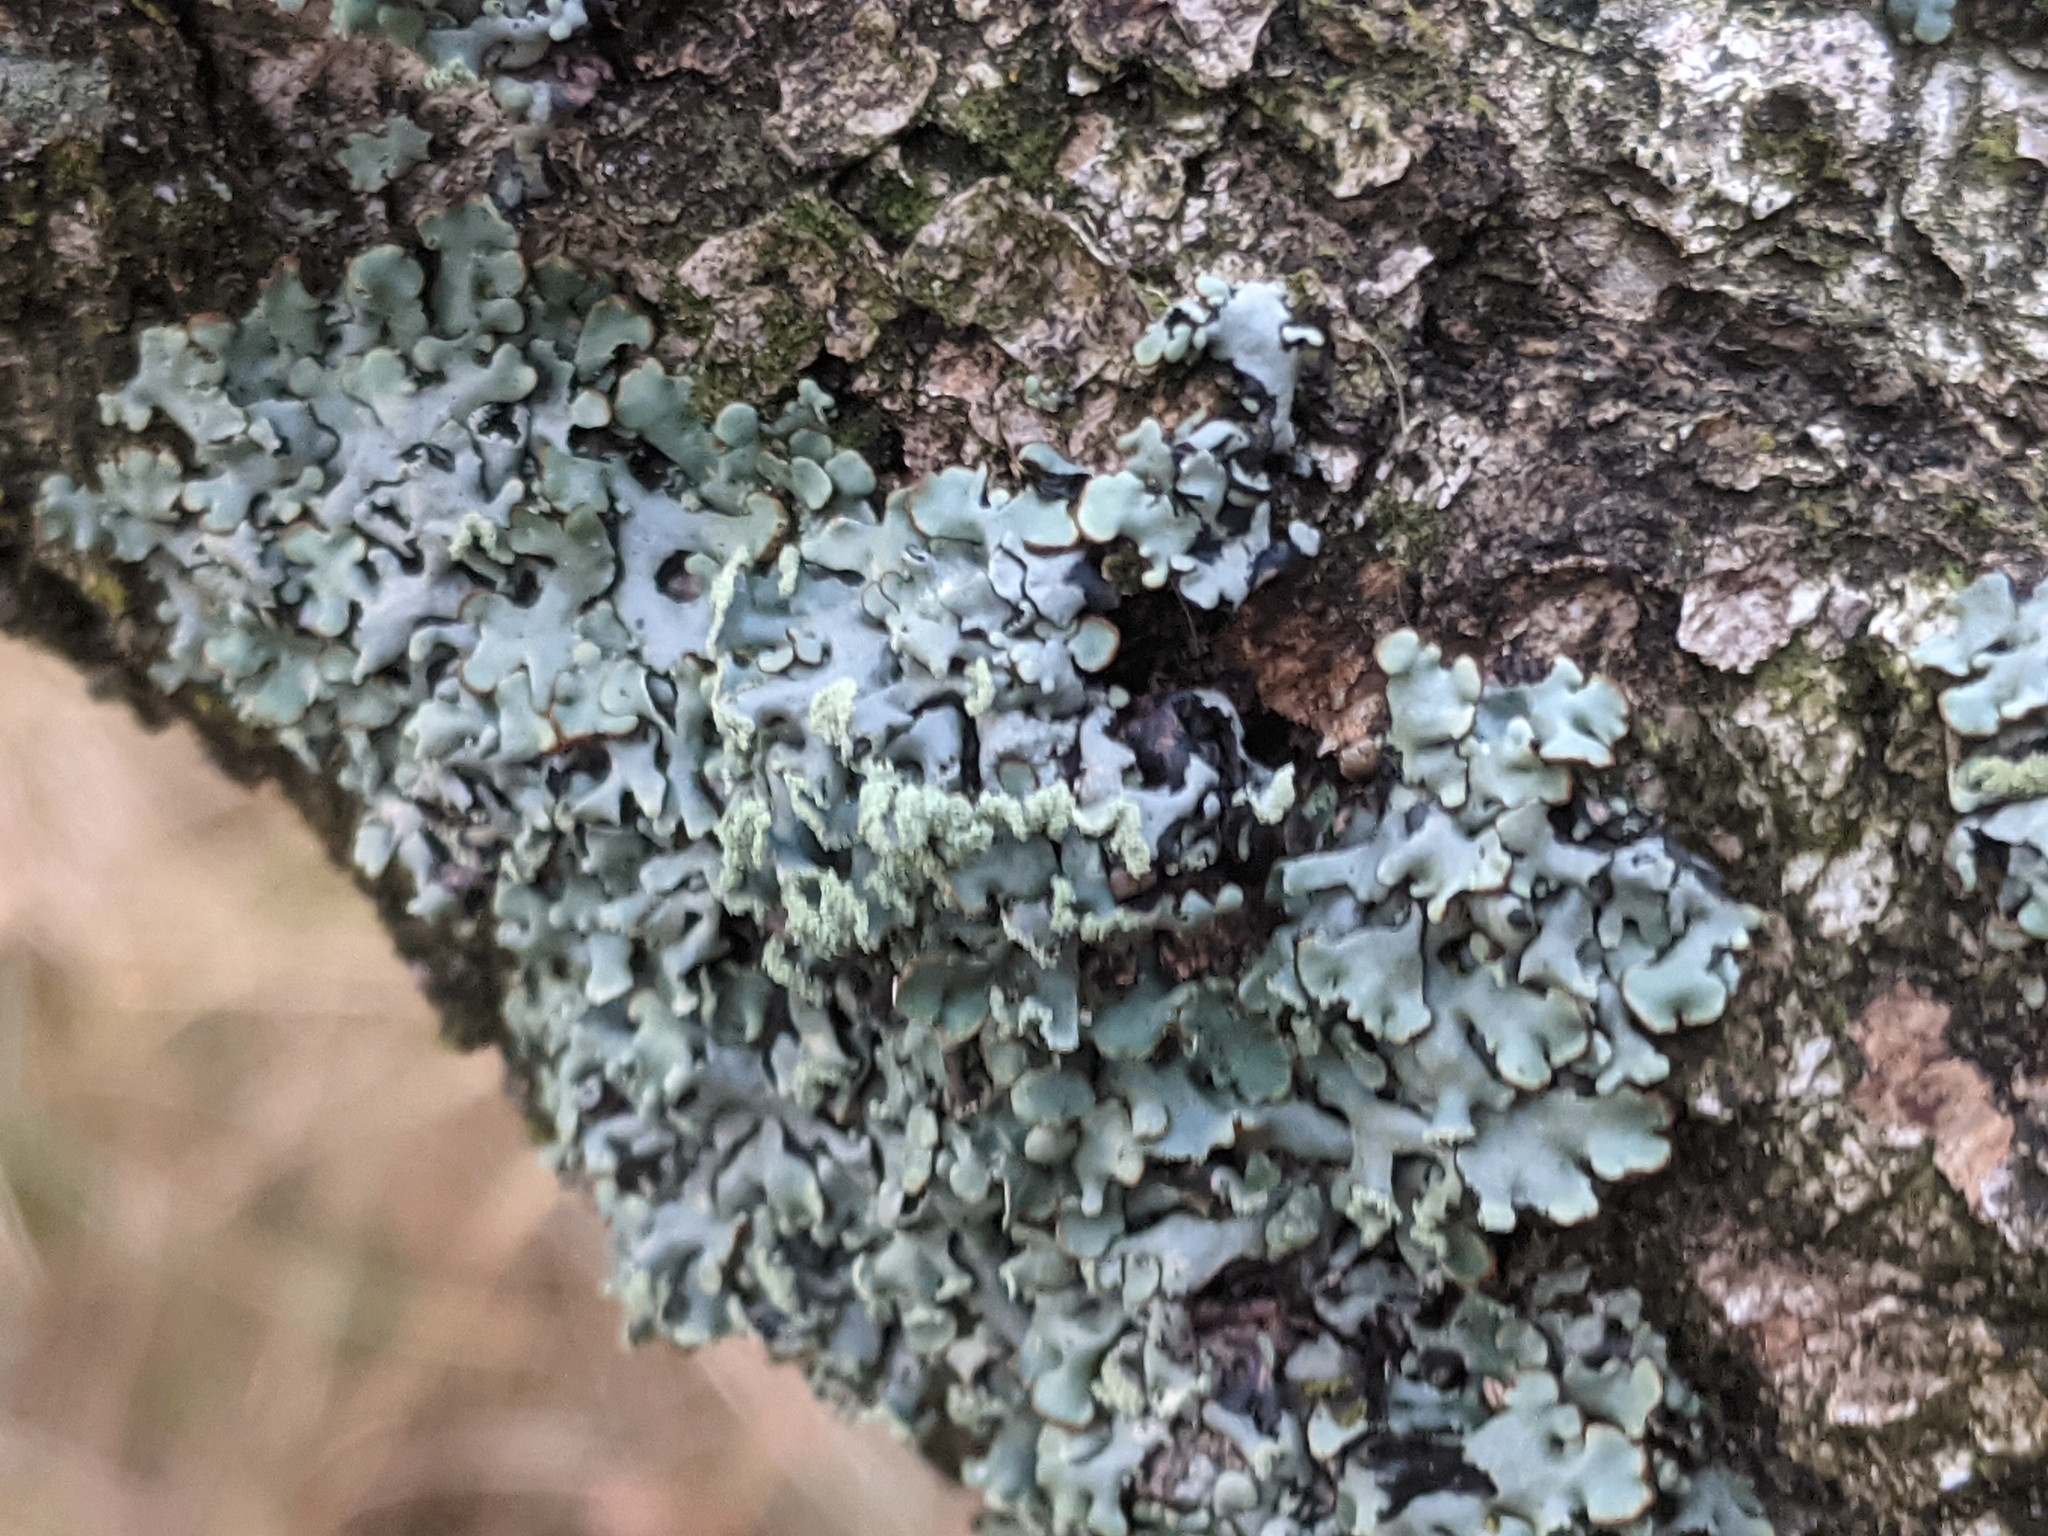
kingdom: Fungi
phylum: Ascomycota
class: Lecanoromycetes
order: Lecanorales
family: Parmeliaceae
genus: Hypogymnia
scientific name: Hypogymnia physodes
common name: Dark crottle
